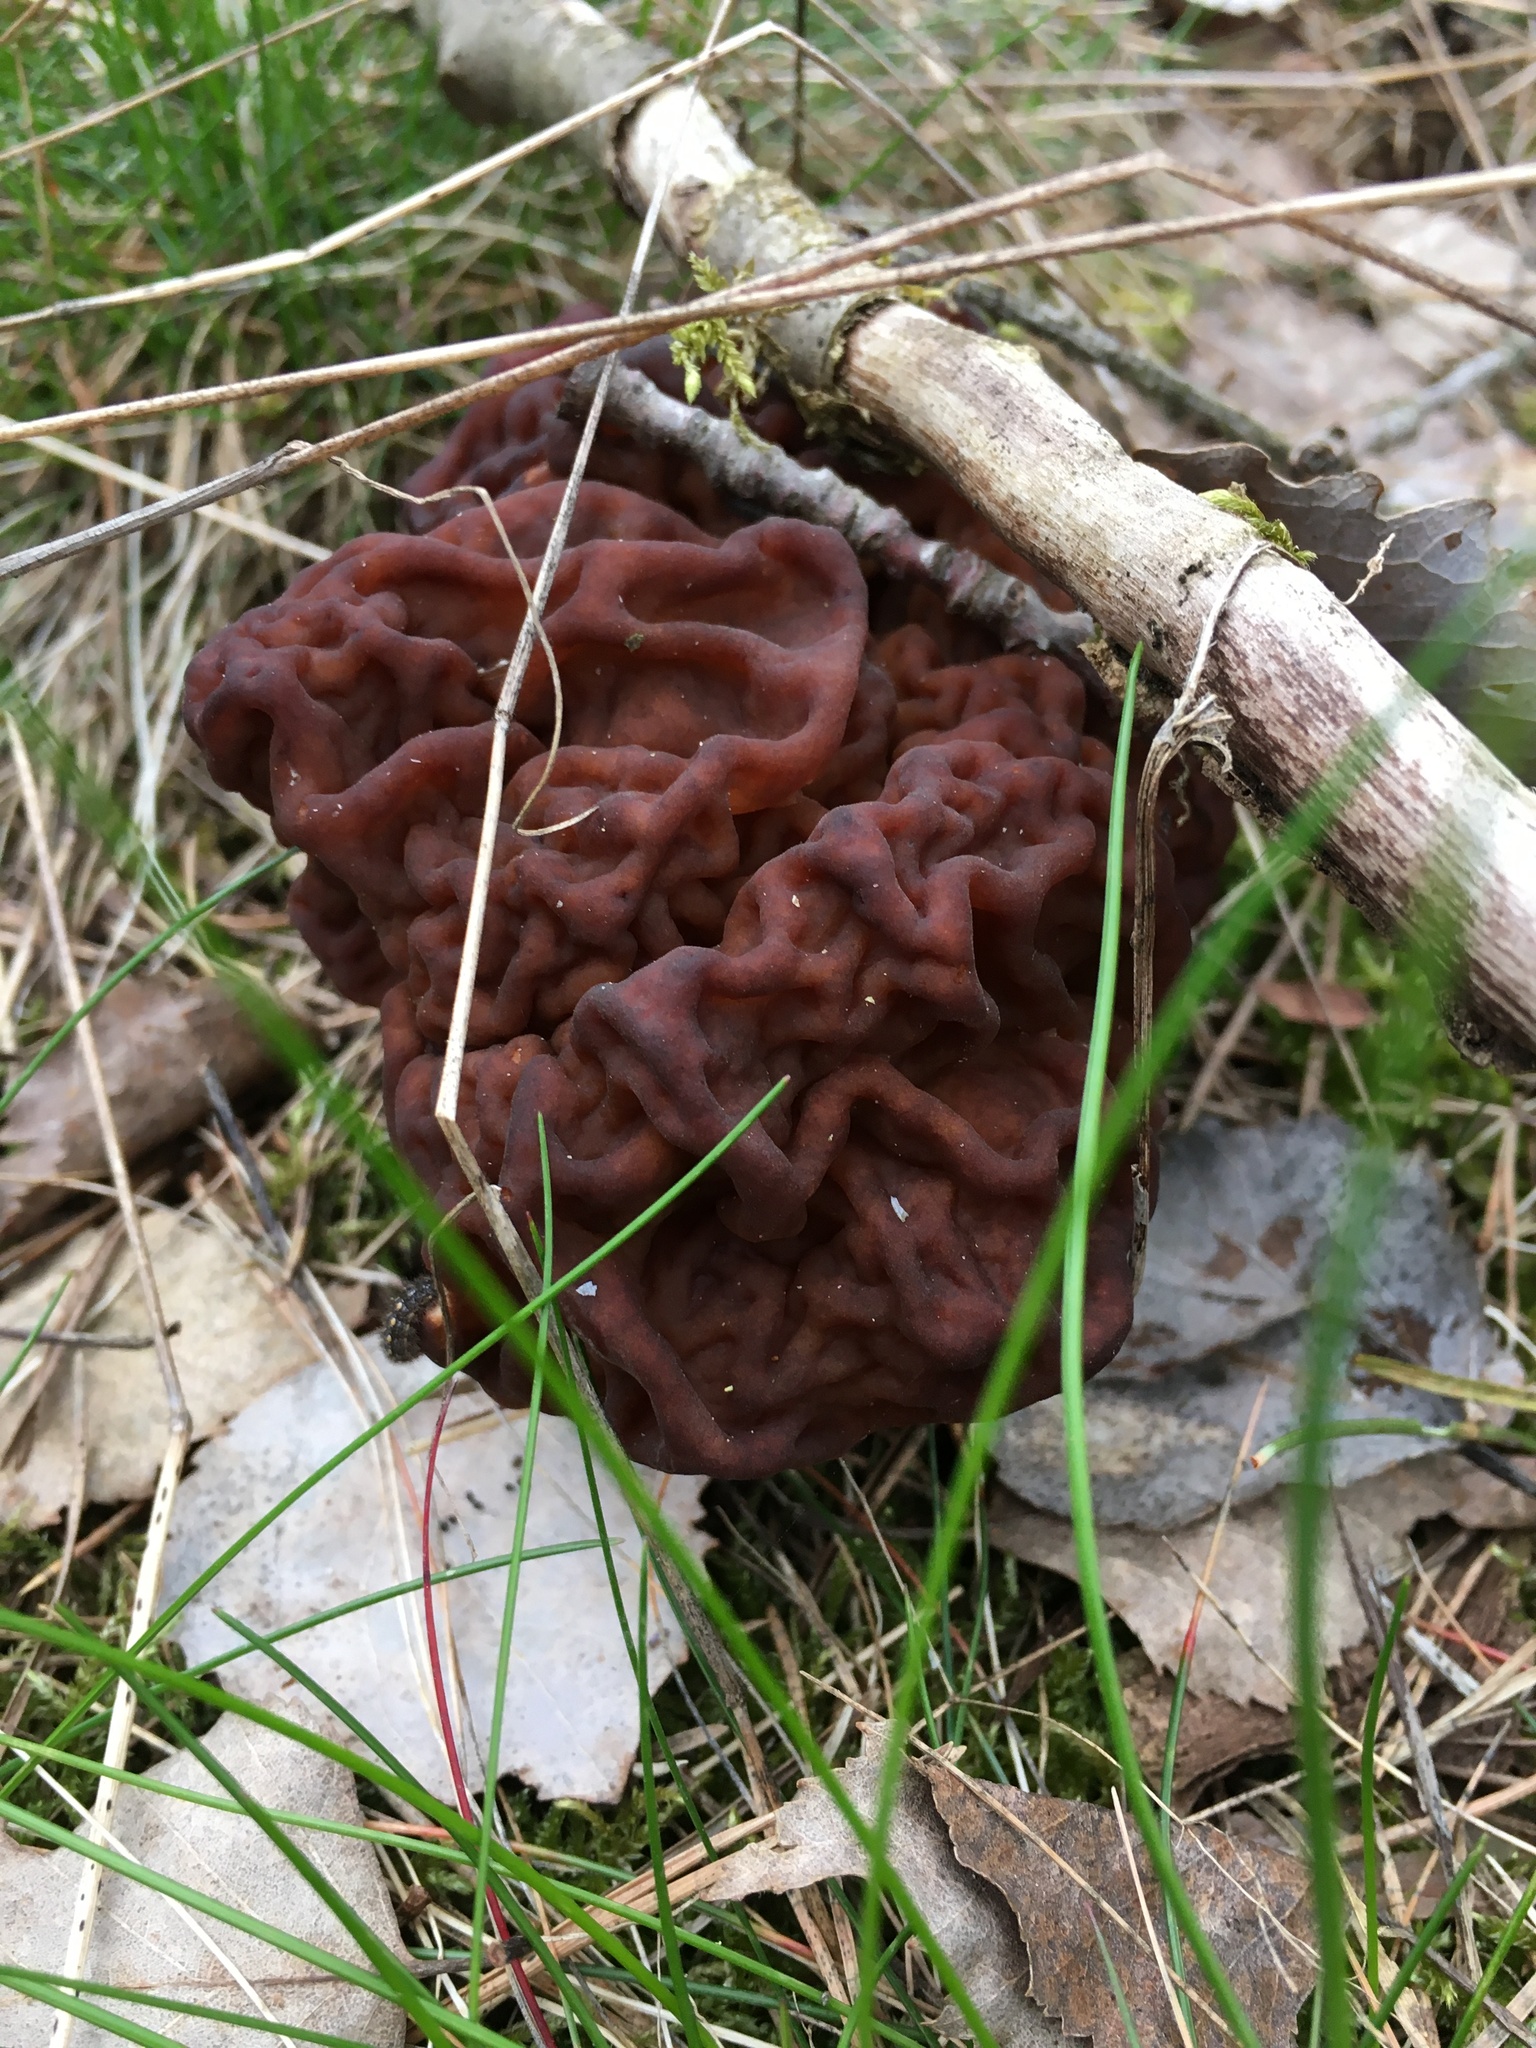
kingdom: Fungi
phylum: Ascomycota
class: Pezizomycetes
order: Pezizales
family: Discinaceae
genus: Gyromitra
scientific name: Gyromitra esculenta
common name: False morel
